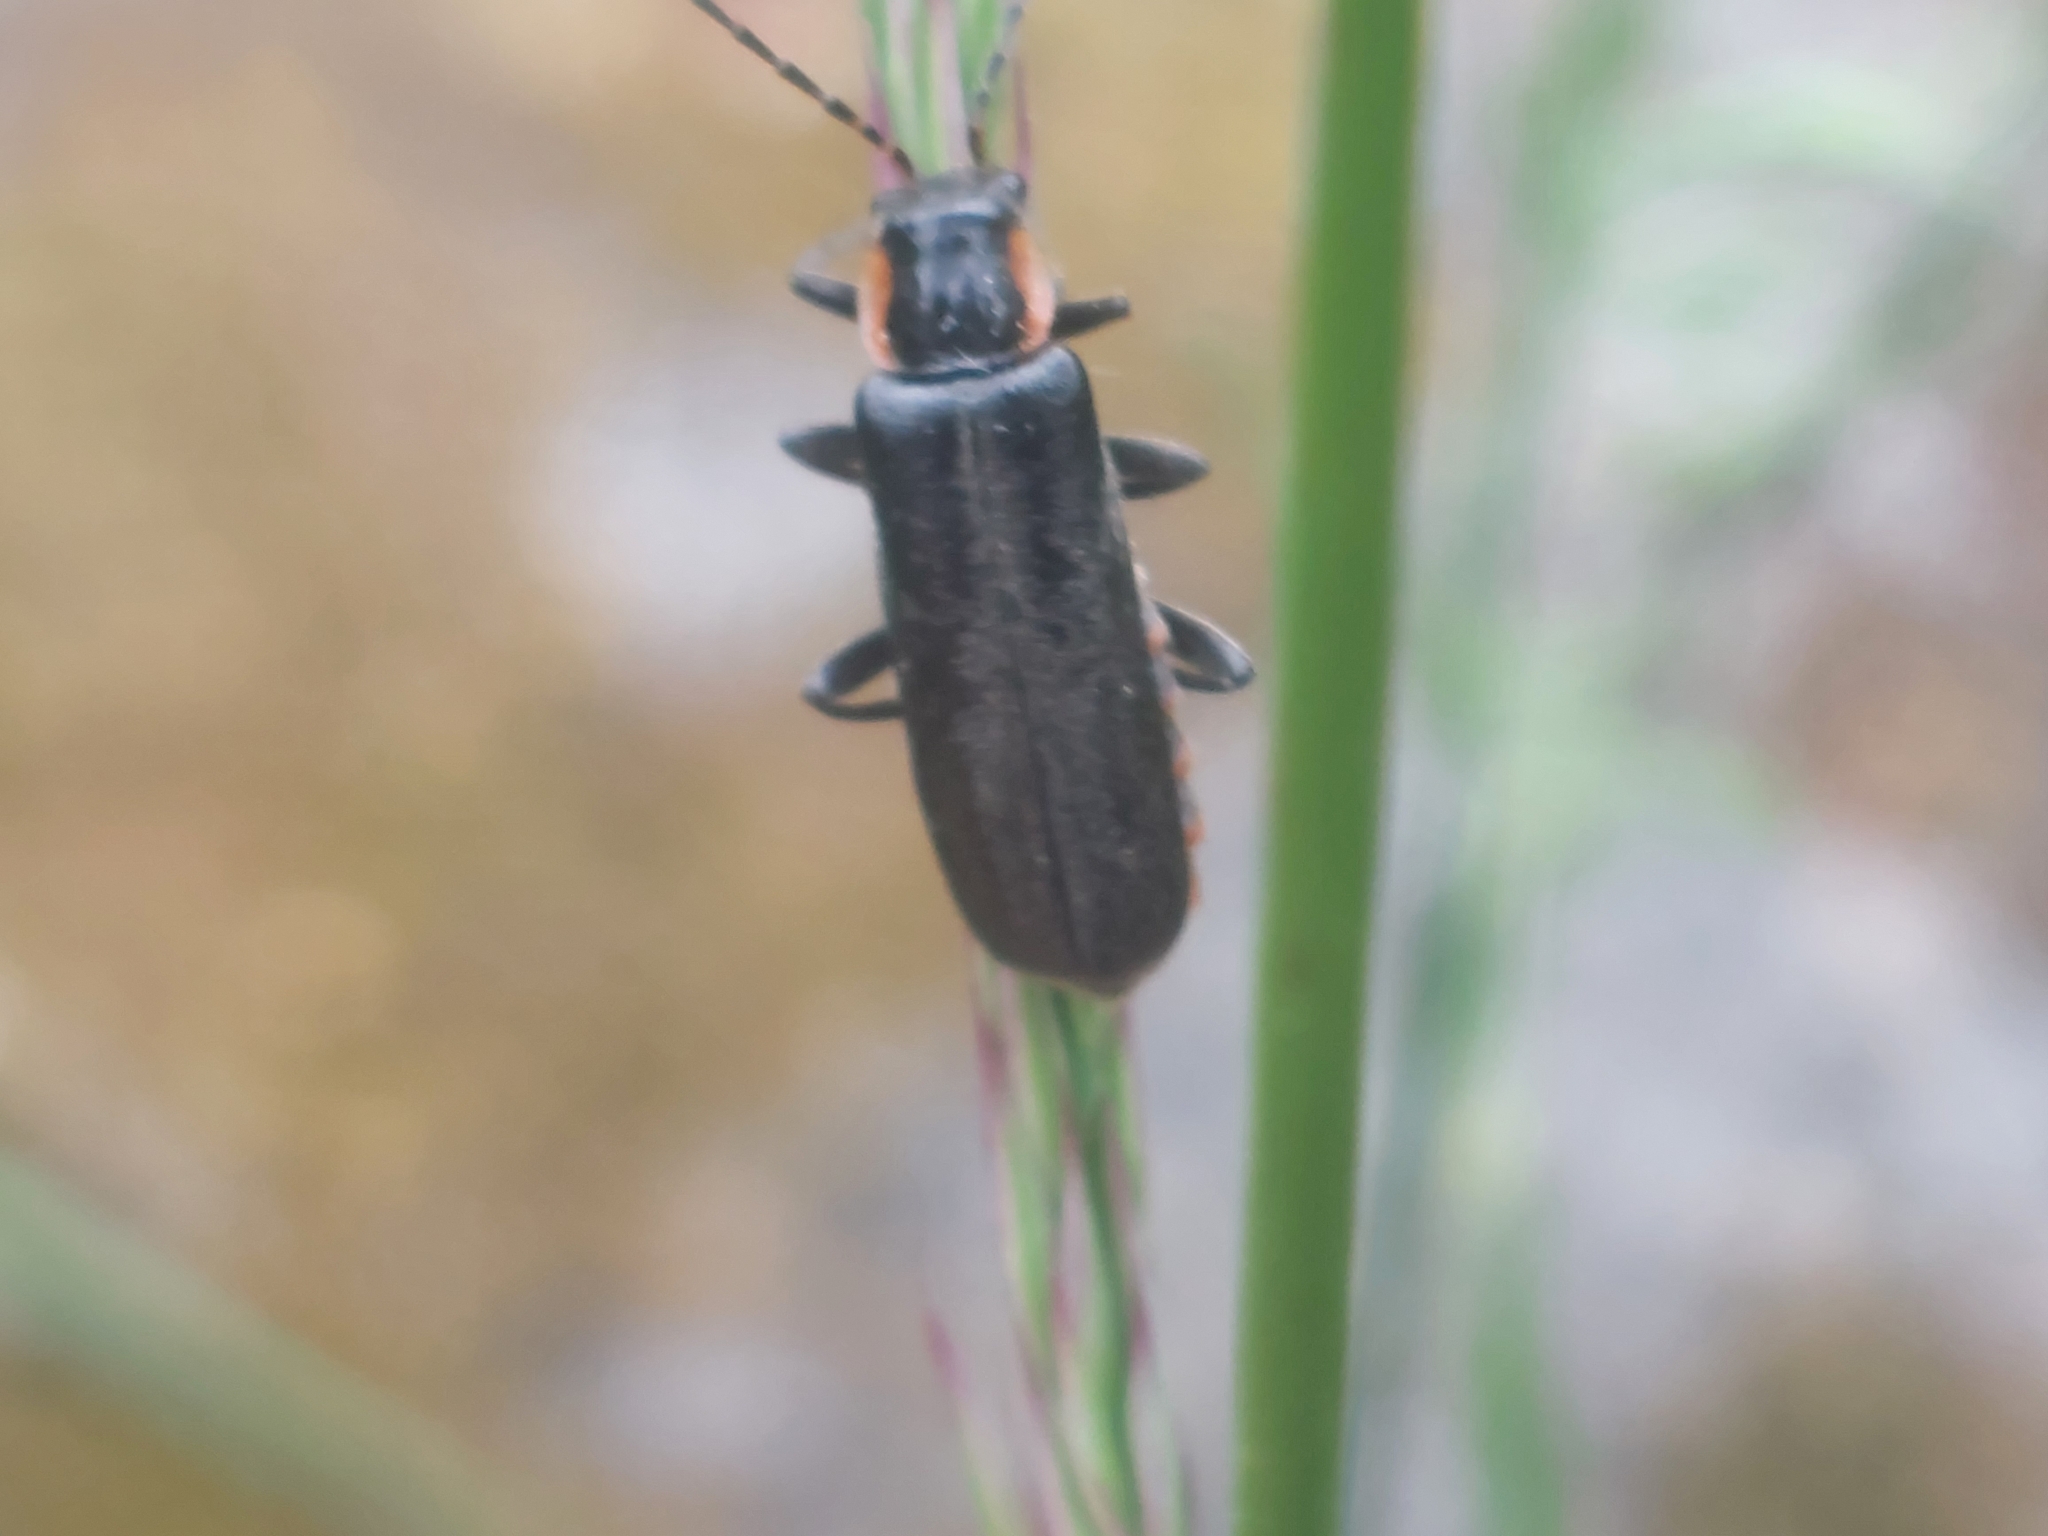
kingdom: Animalia
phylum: Arthropoda
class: Insecta
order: Coleoptera
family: Cantharidae
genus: Cantharis
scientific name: Cantharis obscura
